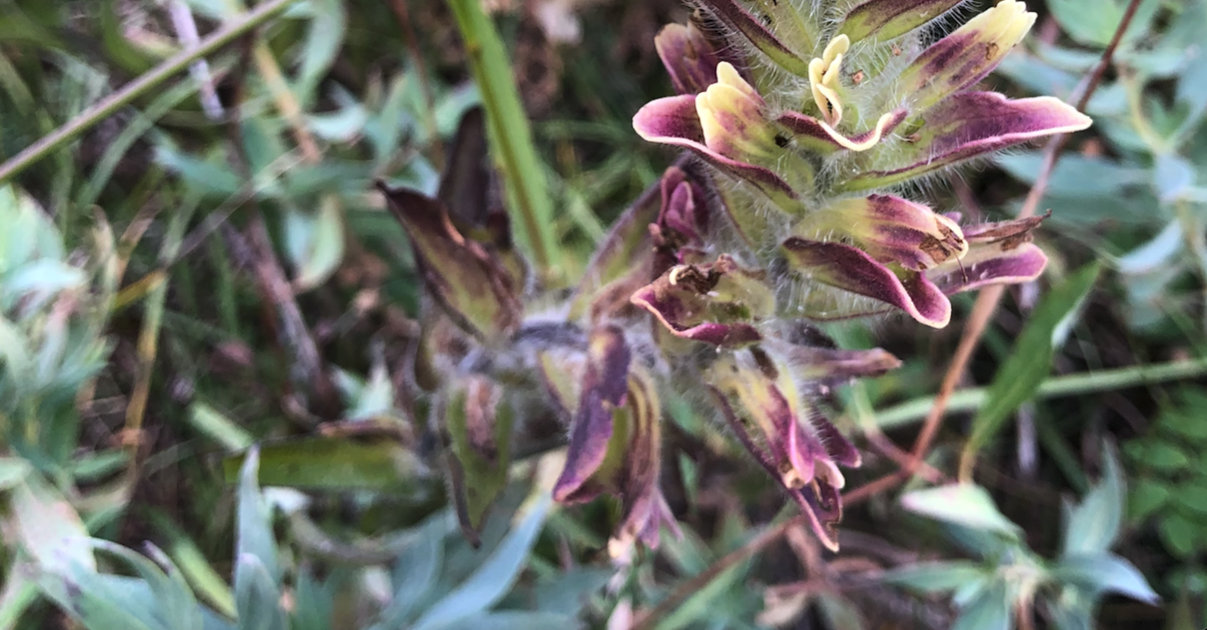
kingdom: Plantae
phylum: Tracheophyta
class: Magnoliopsida
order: Lamiales
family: Orobanchaceae
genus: Castilleja
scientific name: Castilleja occidentalis
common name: Western paintbrush
